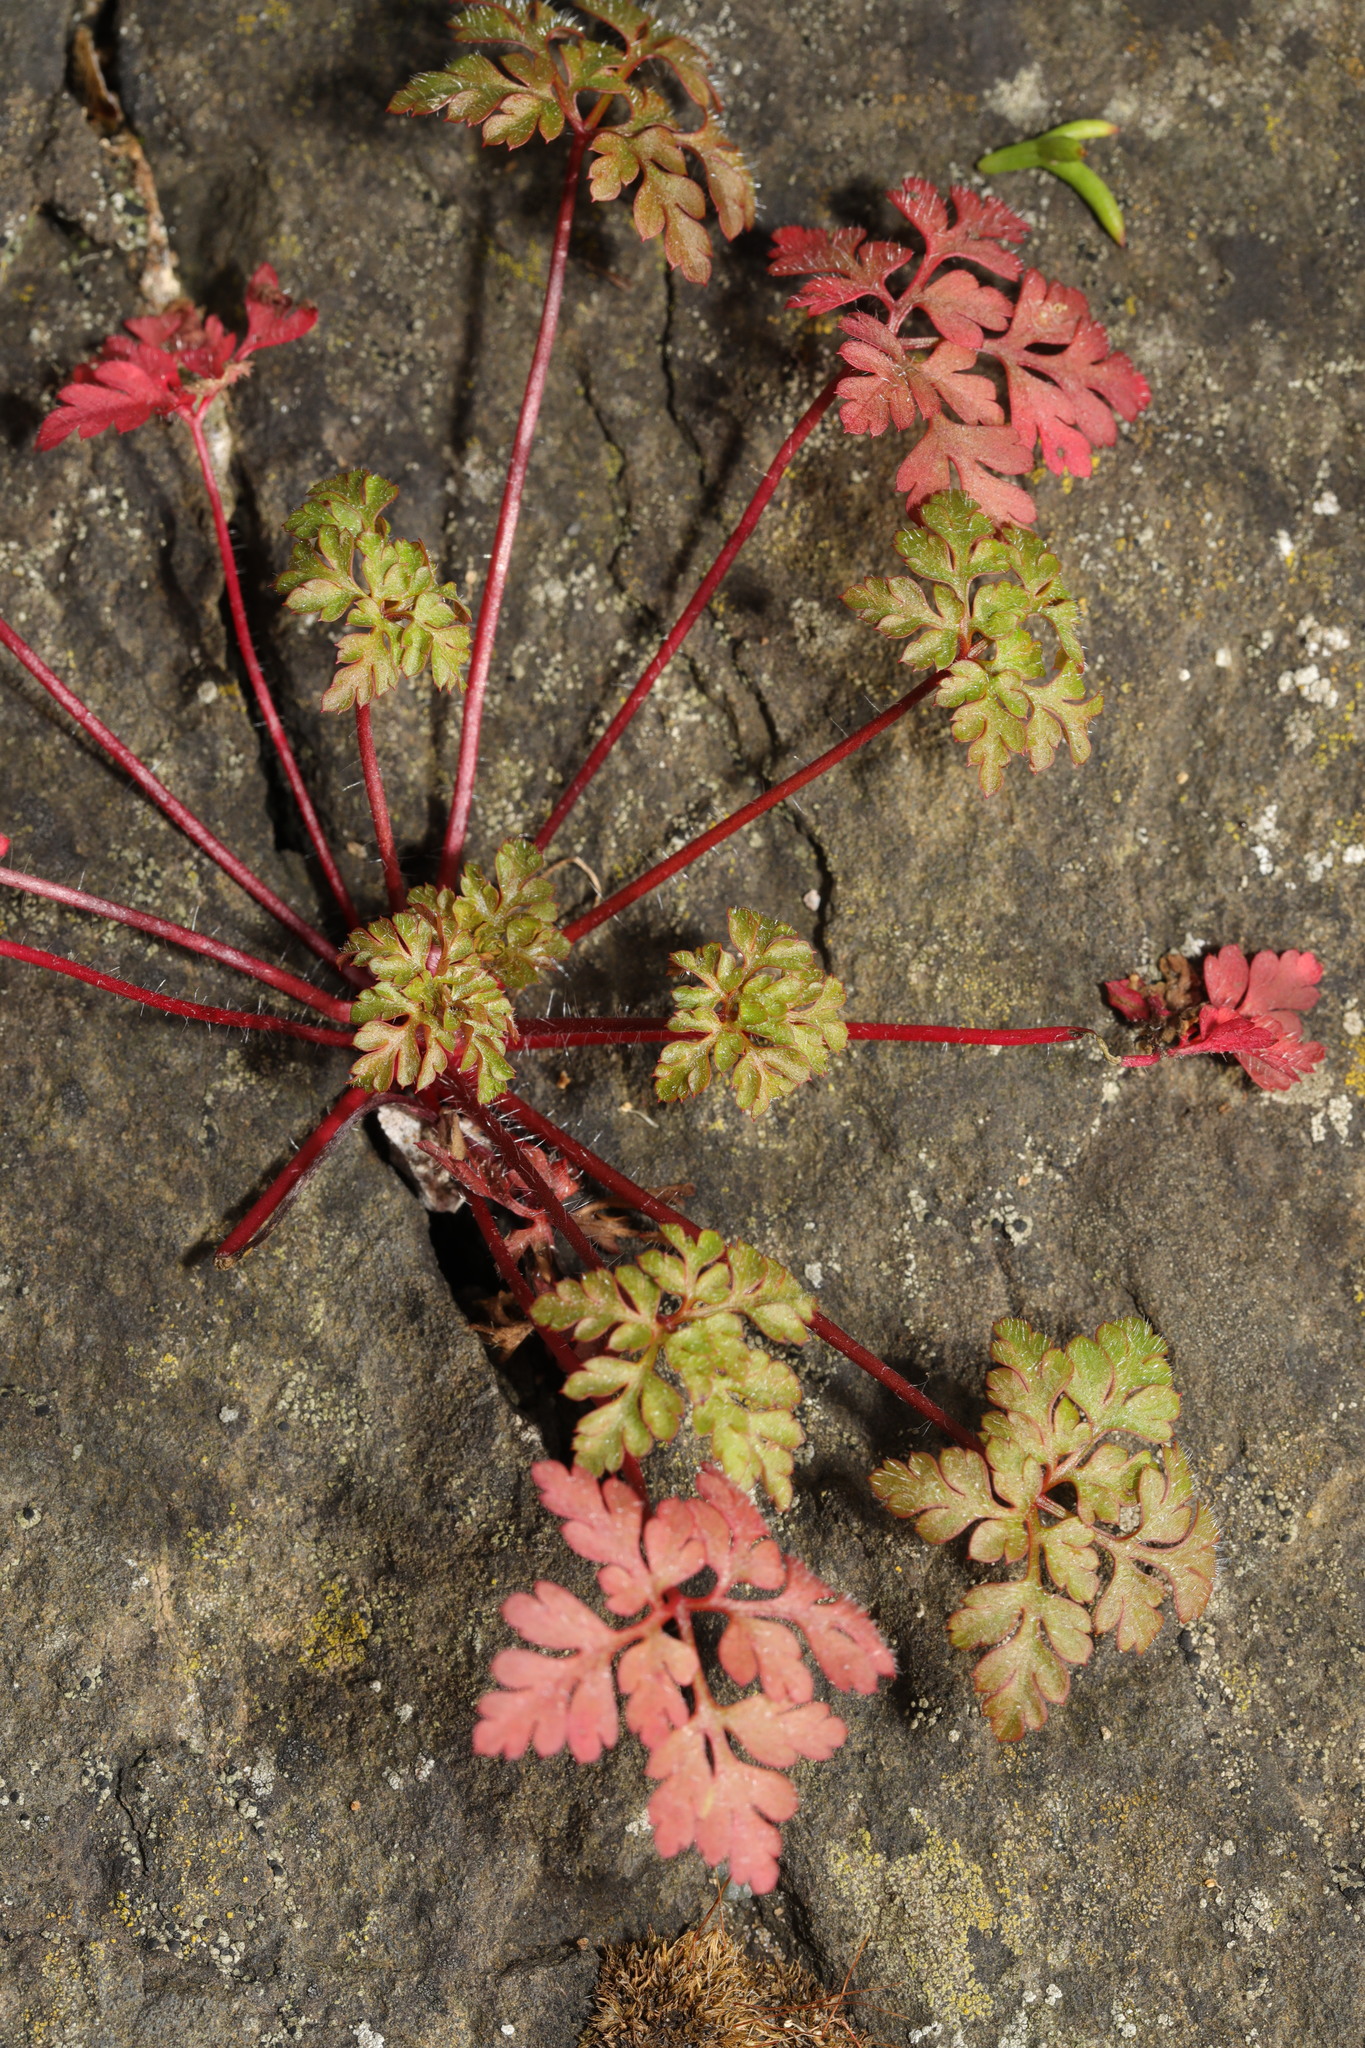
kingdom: Plantae
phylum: Tracheophyta
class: Magnoliopsida
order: Geraniales
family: Geraniaceae
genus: Geranium
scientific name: Geranium robertianum
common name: Herb-robert
